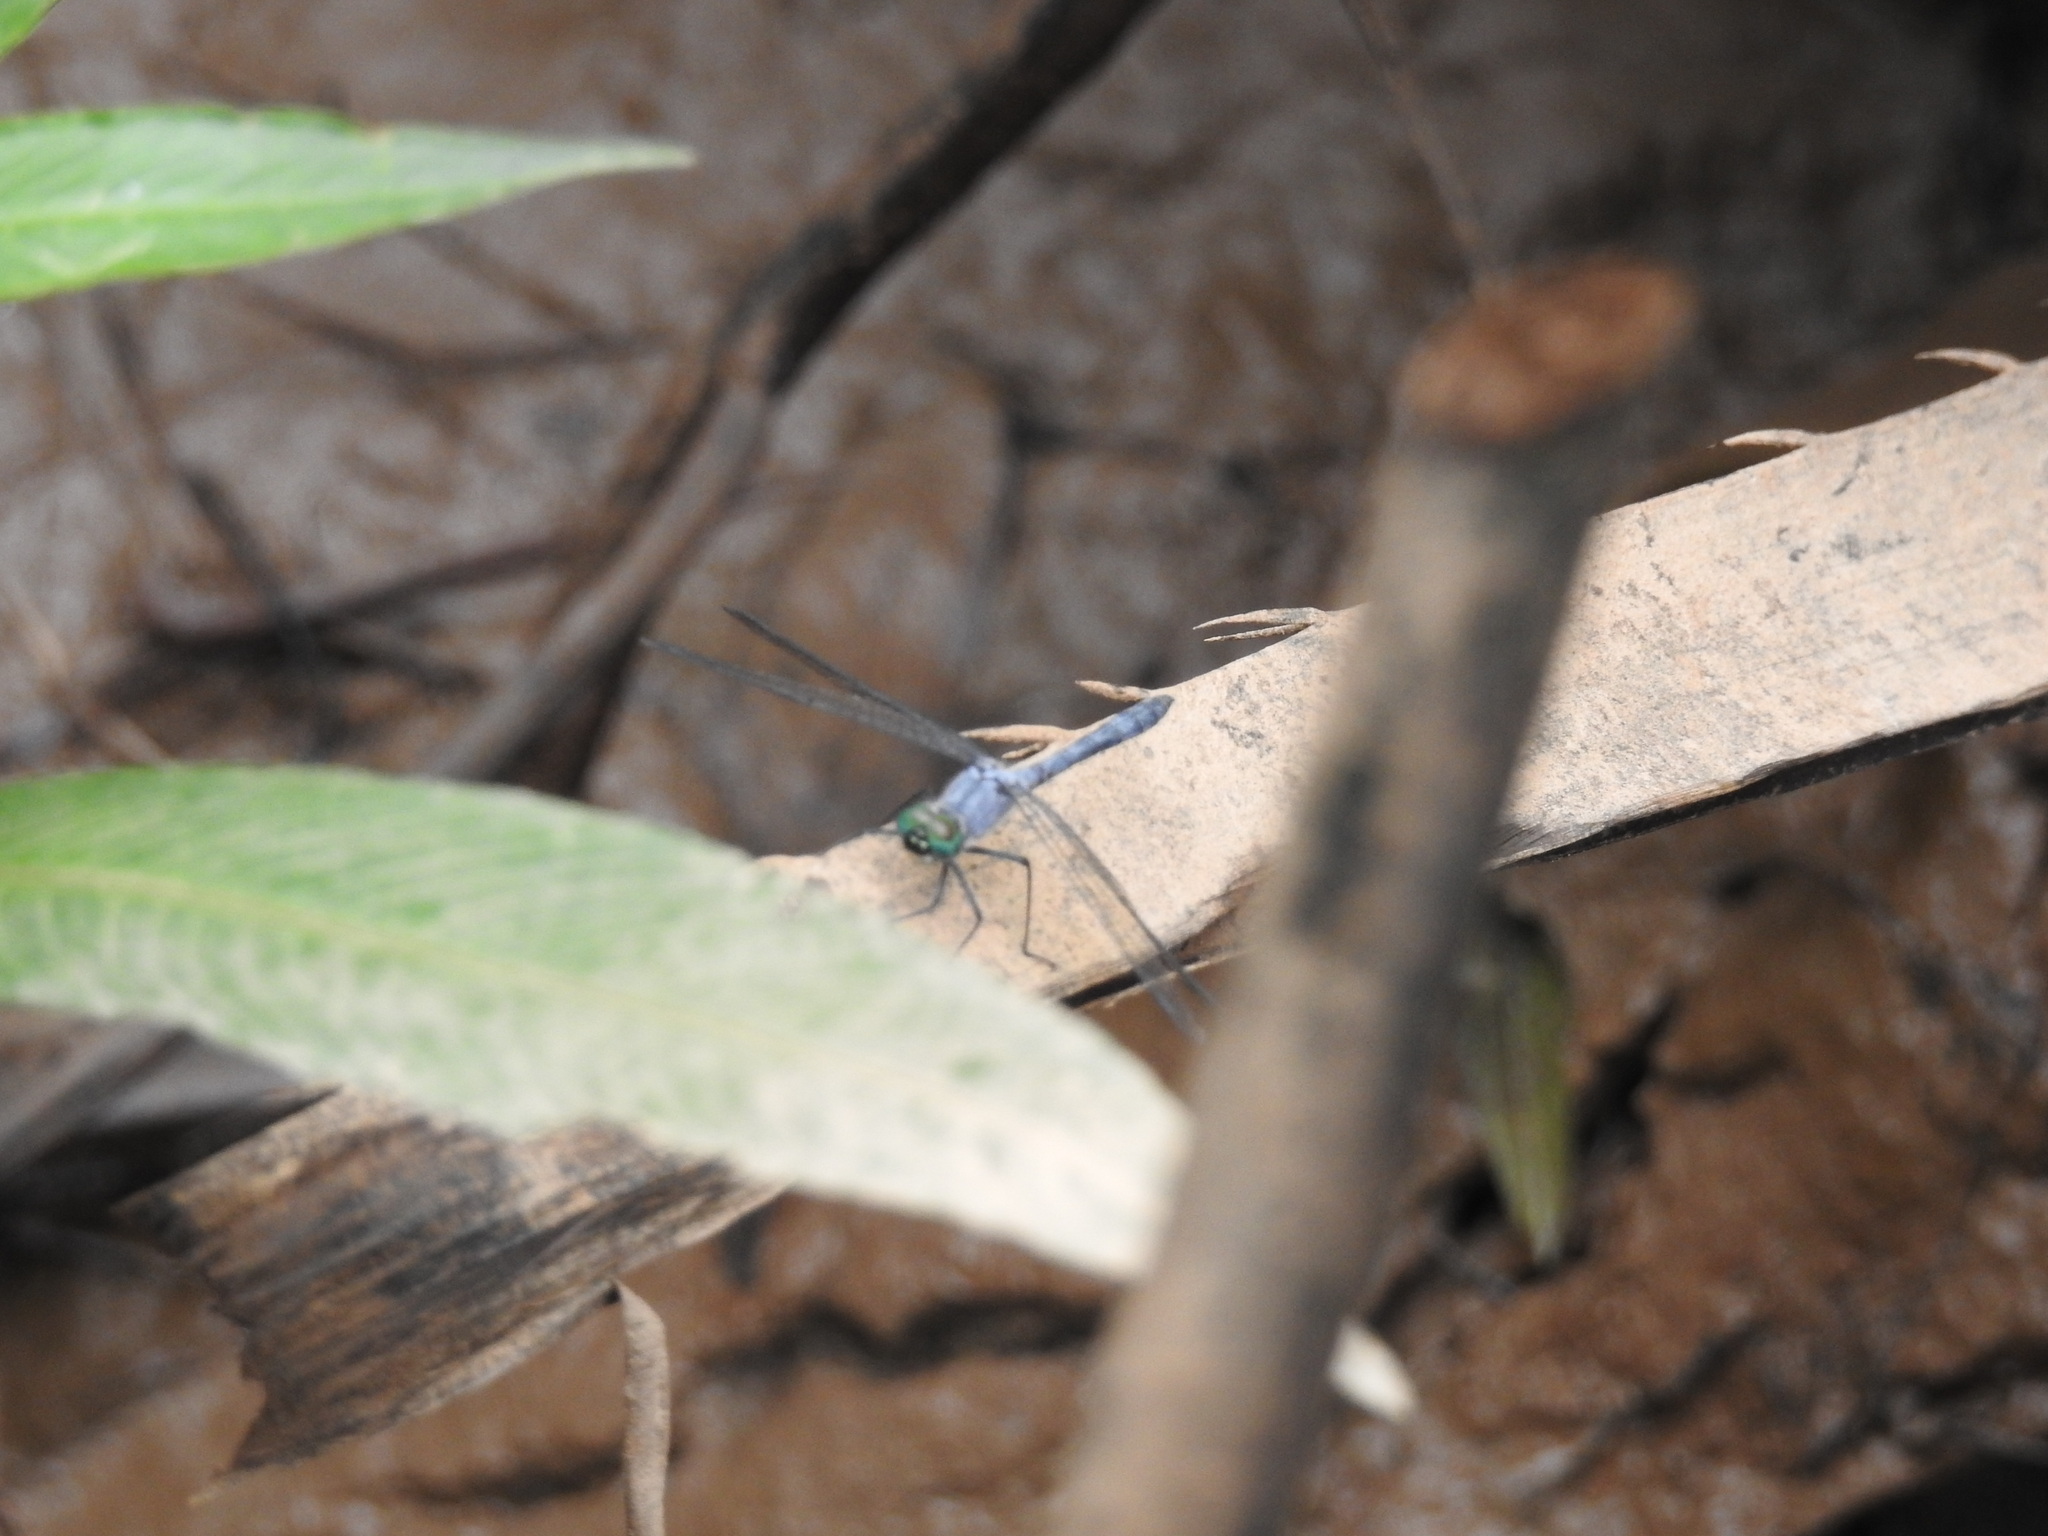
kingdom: Animalia
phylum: Arthropoda
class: Insecta
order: Odonata
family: Libellulidae
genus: Oligoclada
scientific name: Oligoclada laetitia
